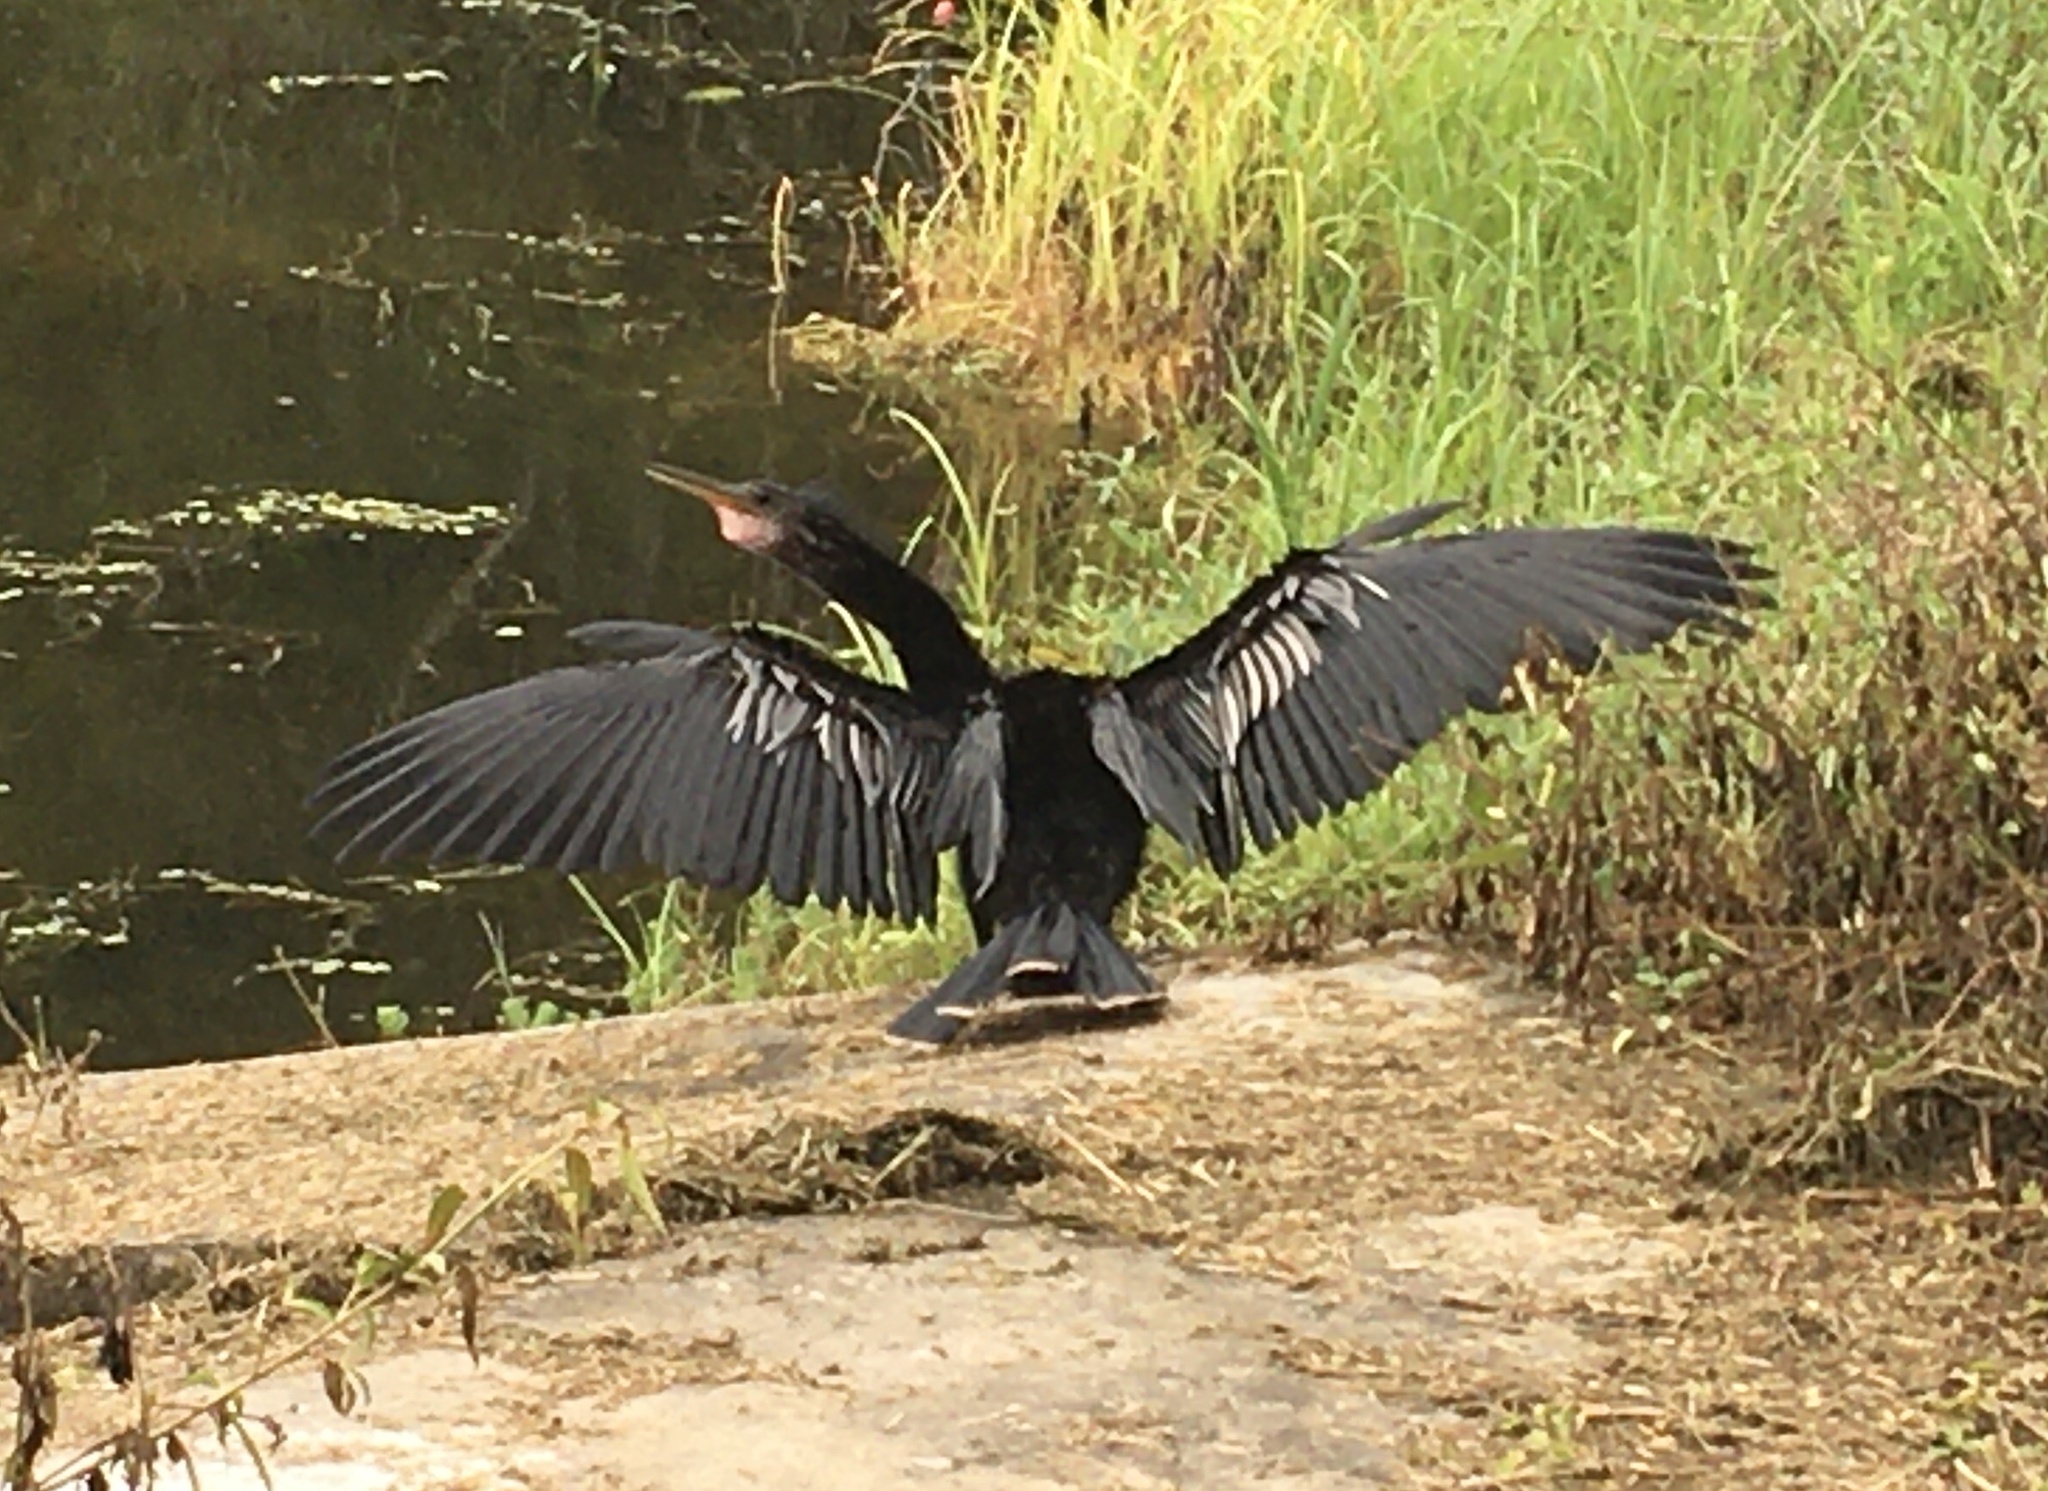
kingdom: Animalia
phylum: Chordata
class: Aves
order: Suliformes
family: Anhingidae
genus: Anhinga
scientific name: Anhinga anhinga
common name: Anhinga
